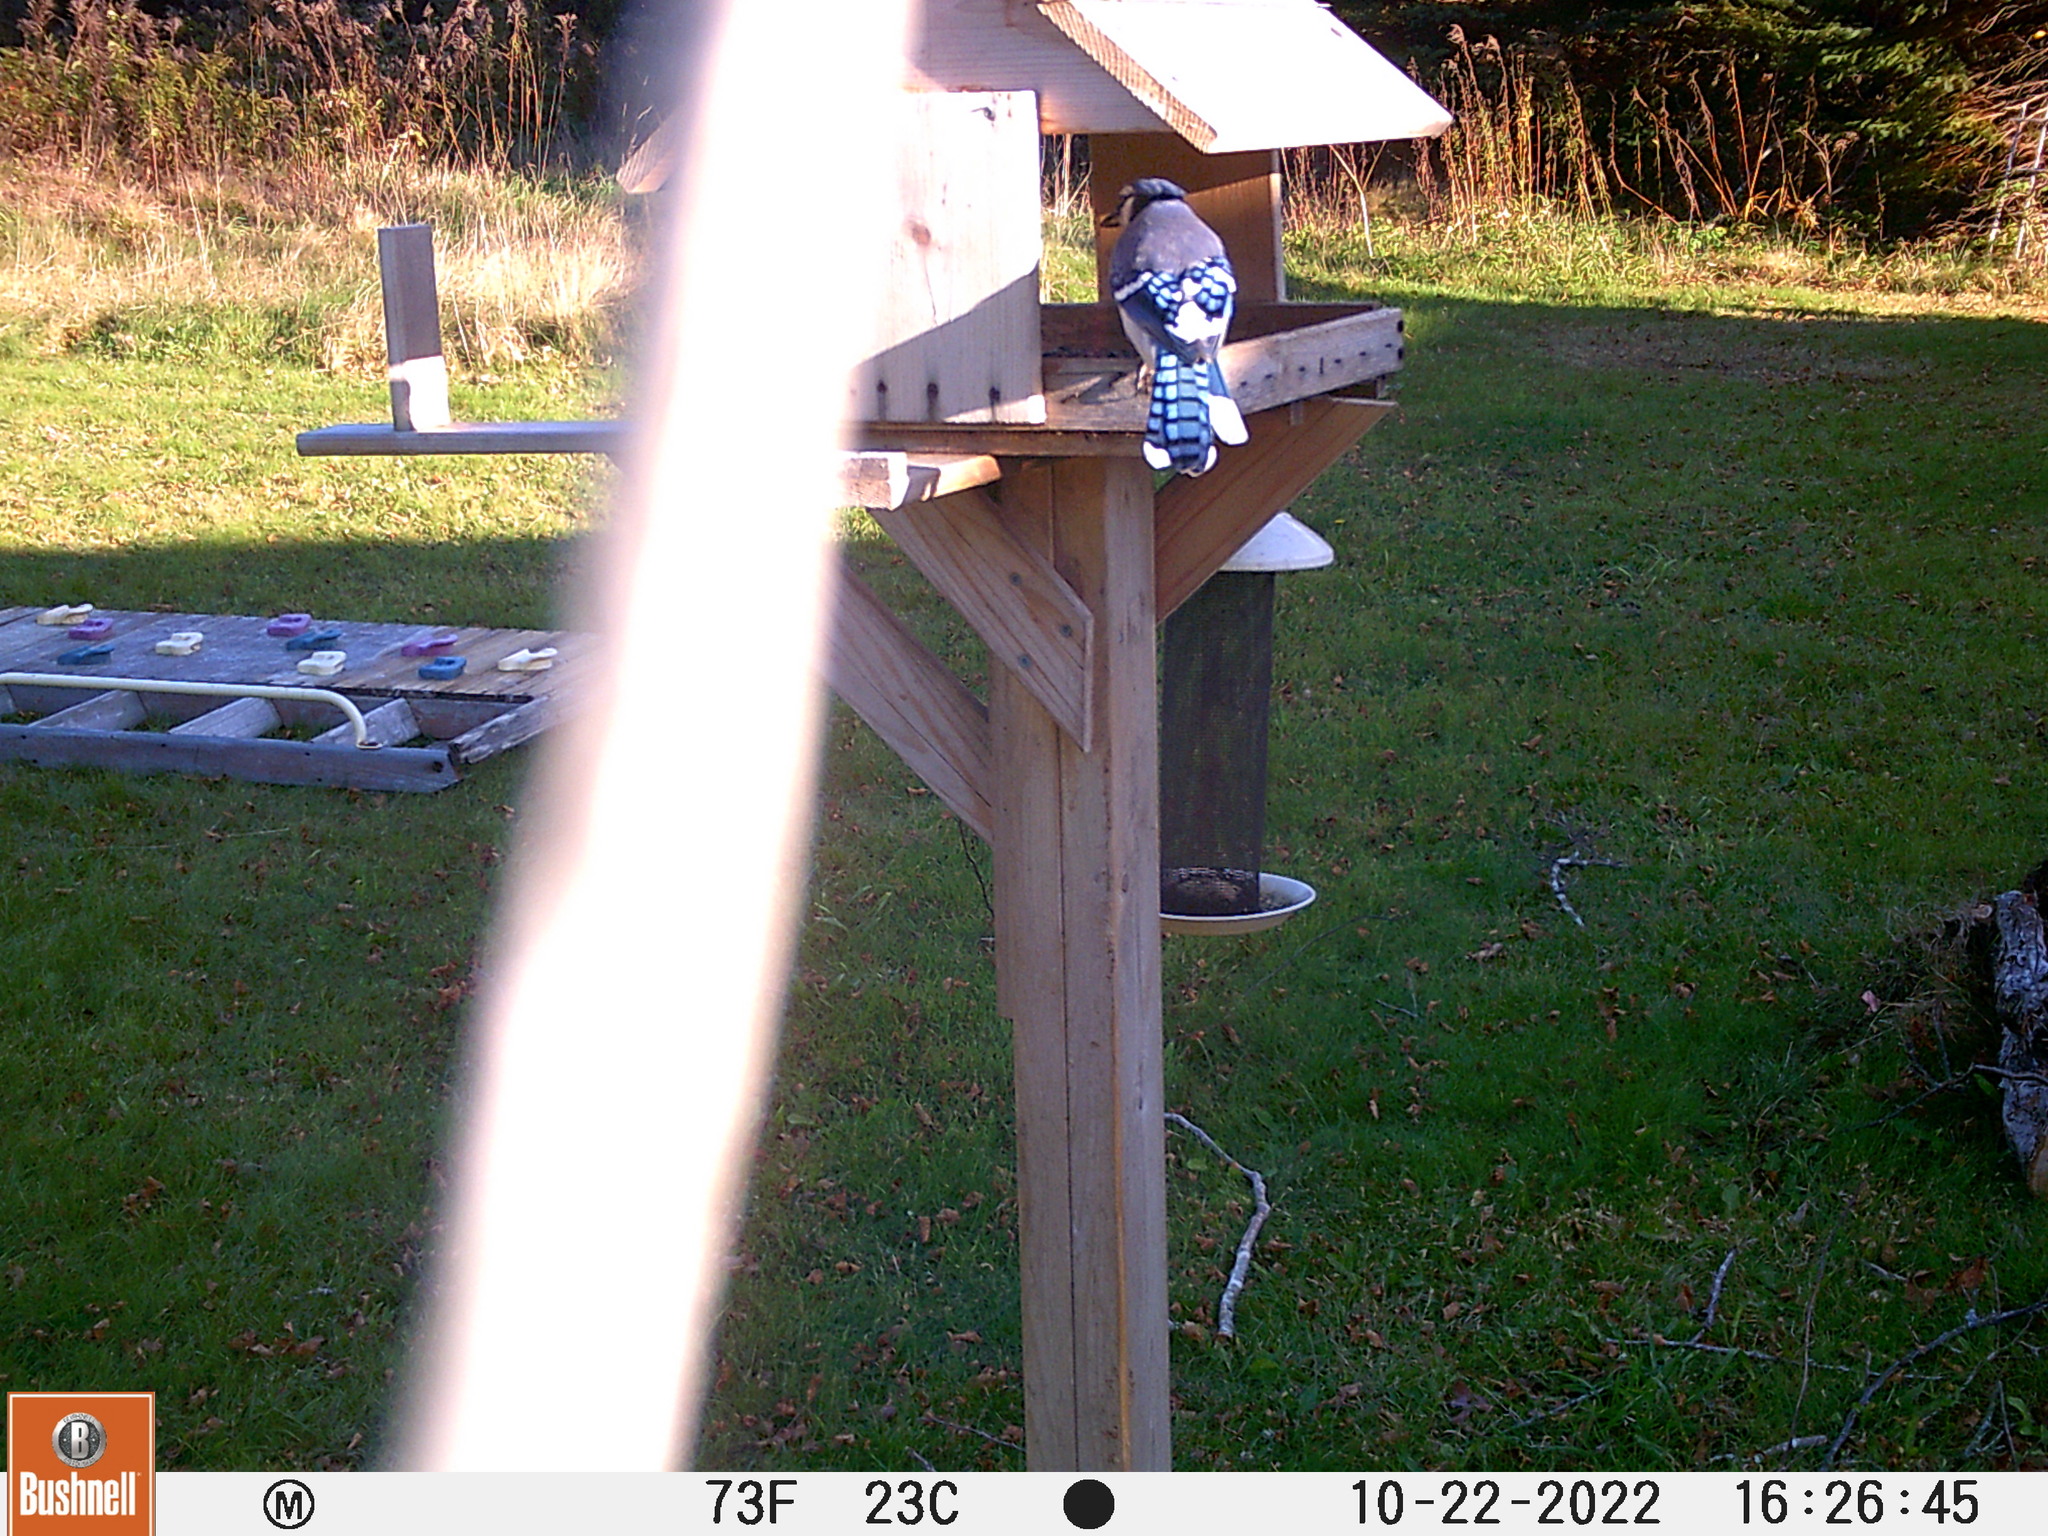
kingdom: Animalia
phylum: Chordata
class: Aves
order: Passeriformes
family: Corvidae
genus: Cyanocitta
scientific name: Cyanocitta cristata
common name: Blue jay
